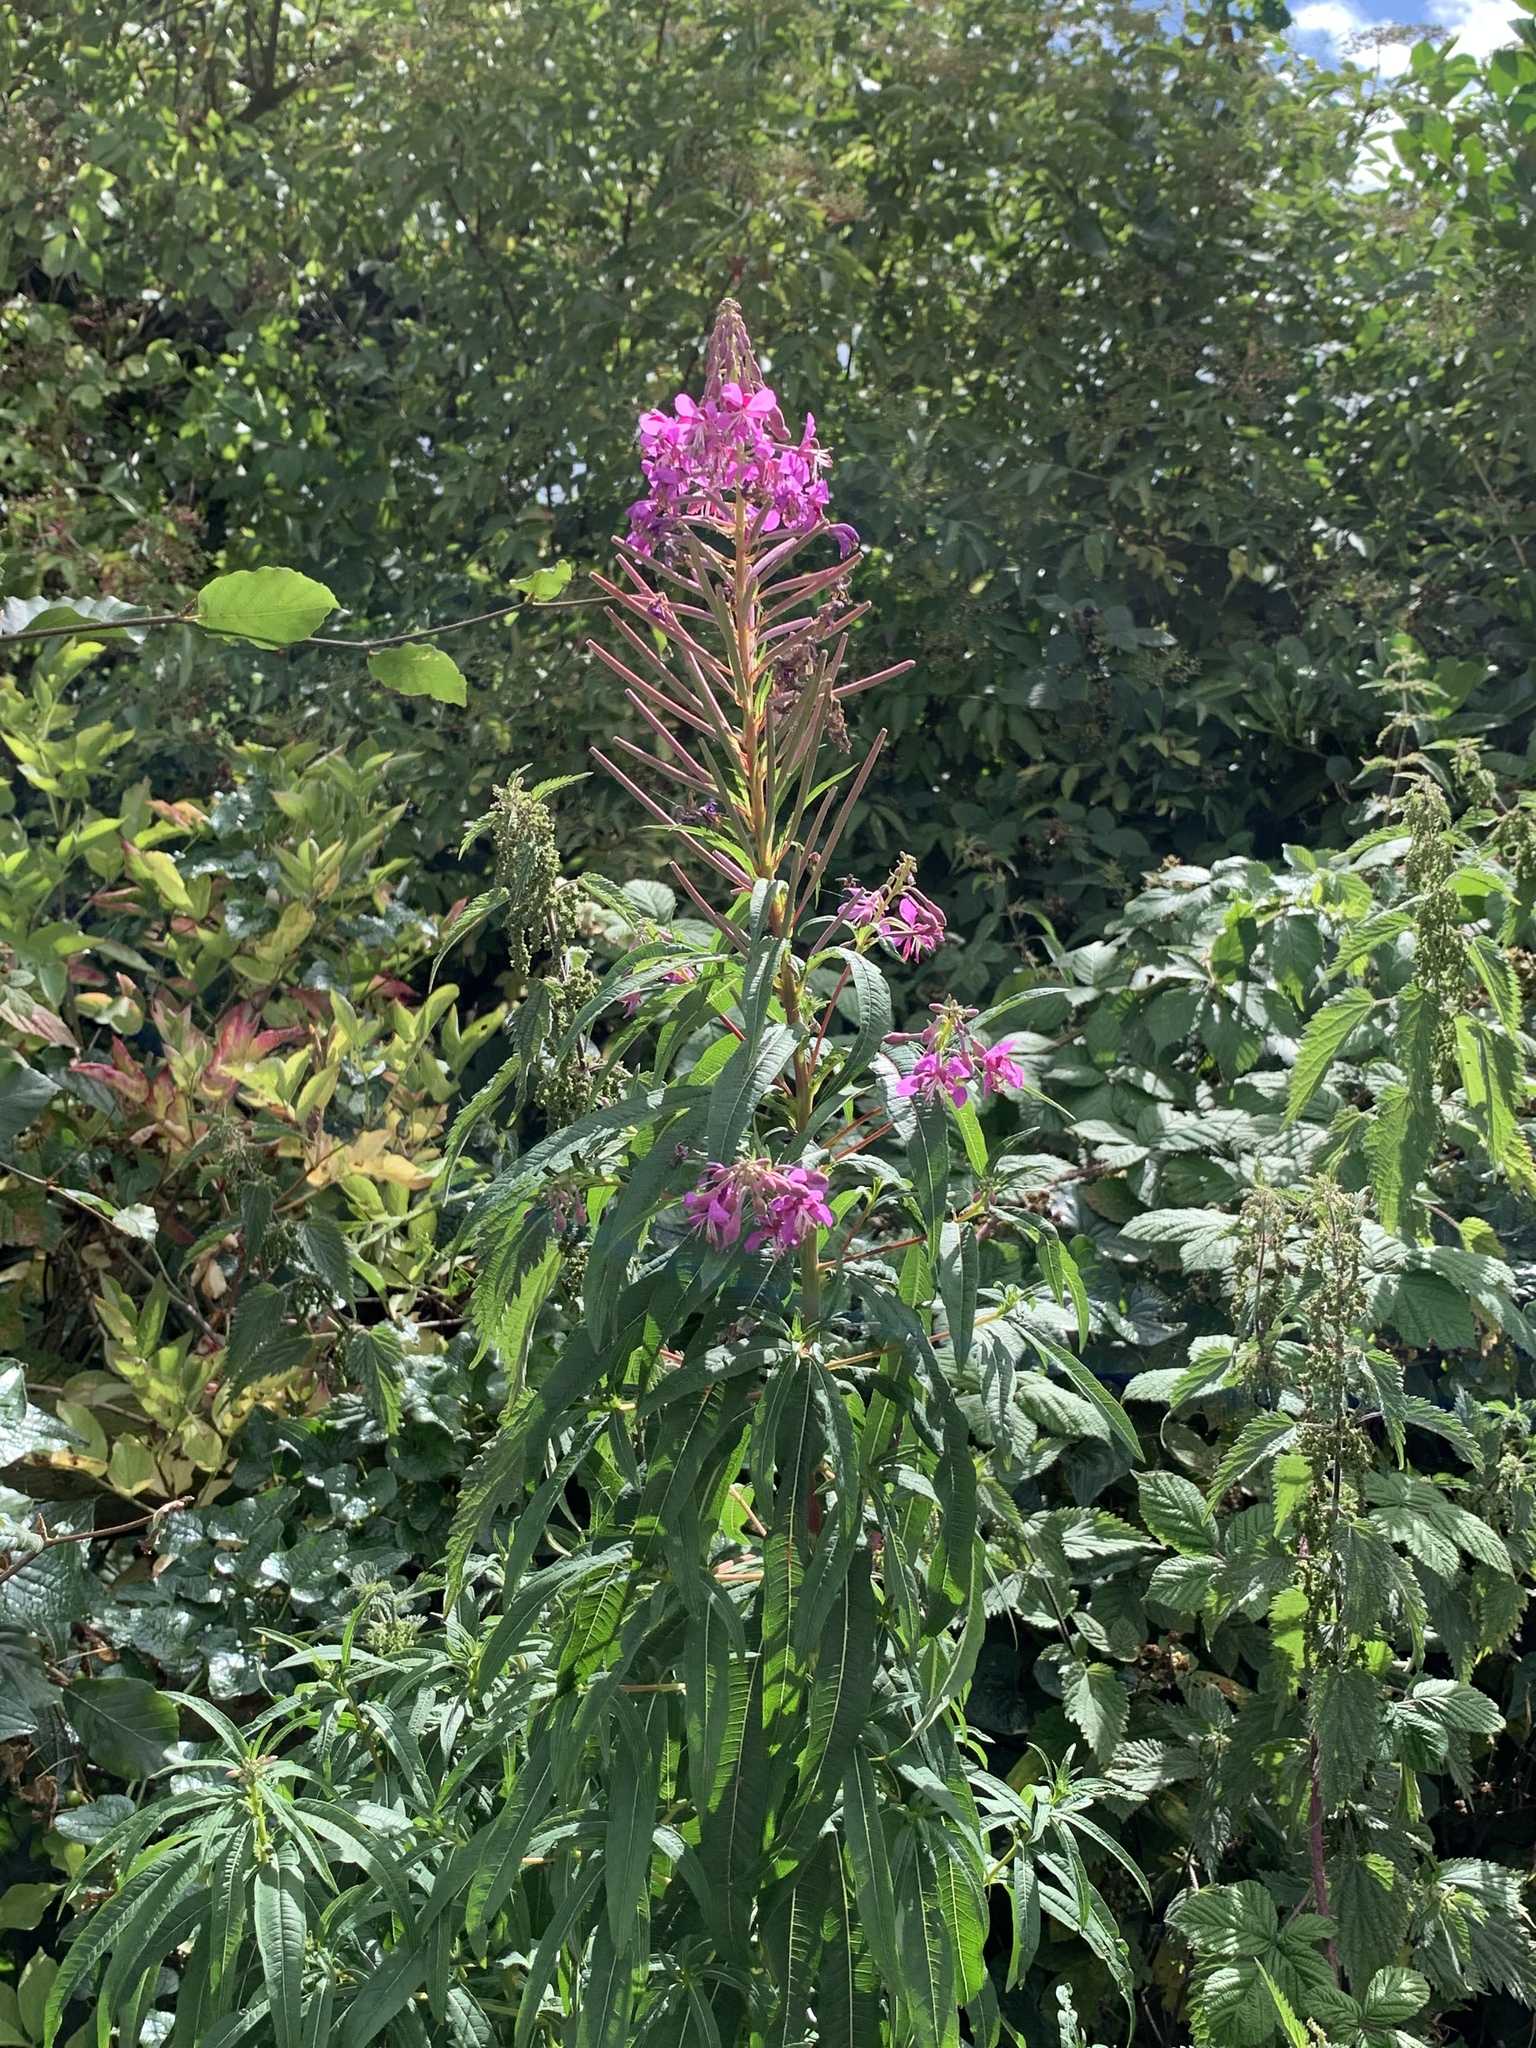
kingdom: Plantae
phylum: Tracheophyta
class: Magnoliopsida
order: Myrtales
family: Onagraceae
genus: Chamaenerion
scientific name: Chamaenerion angustifolium
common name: Fireweed
